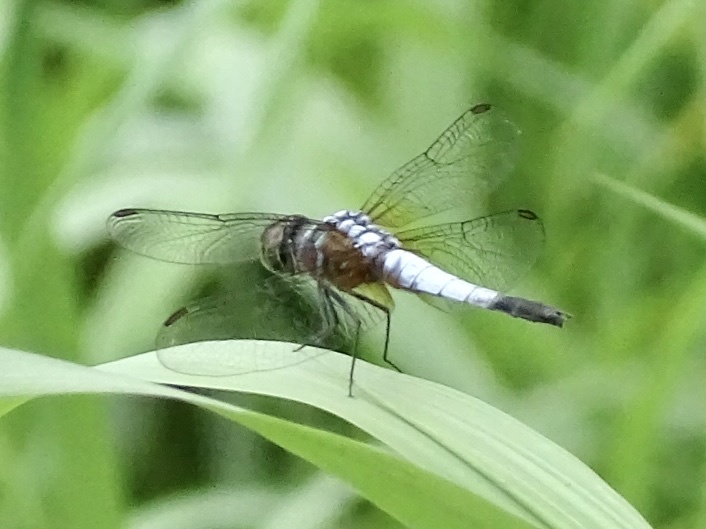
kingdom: Animalia
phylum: Arthropoda
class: Insecta
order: Odonata
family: Libellulidae
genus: Brachydiplax
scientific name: Brachydiplax chalybea
